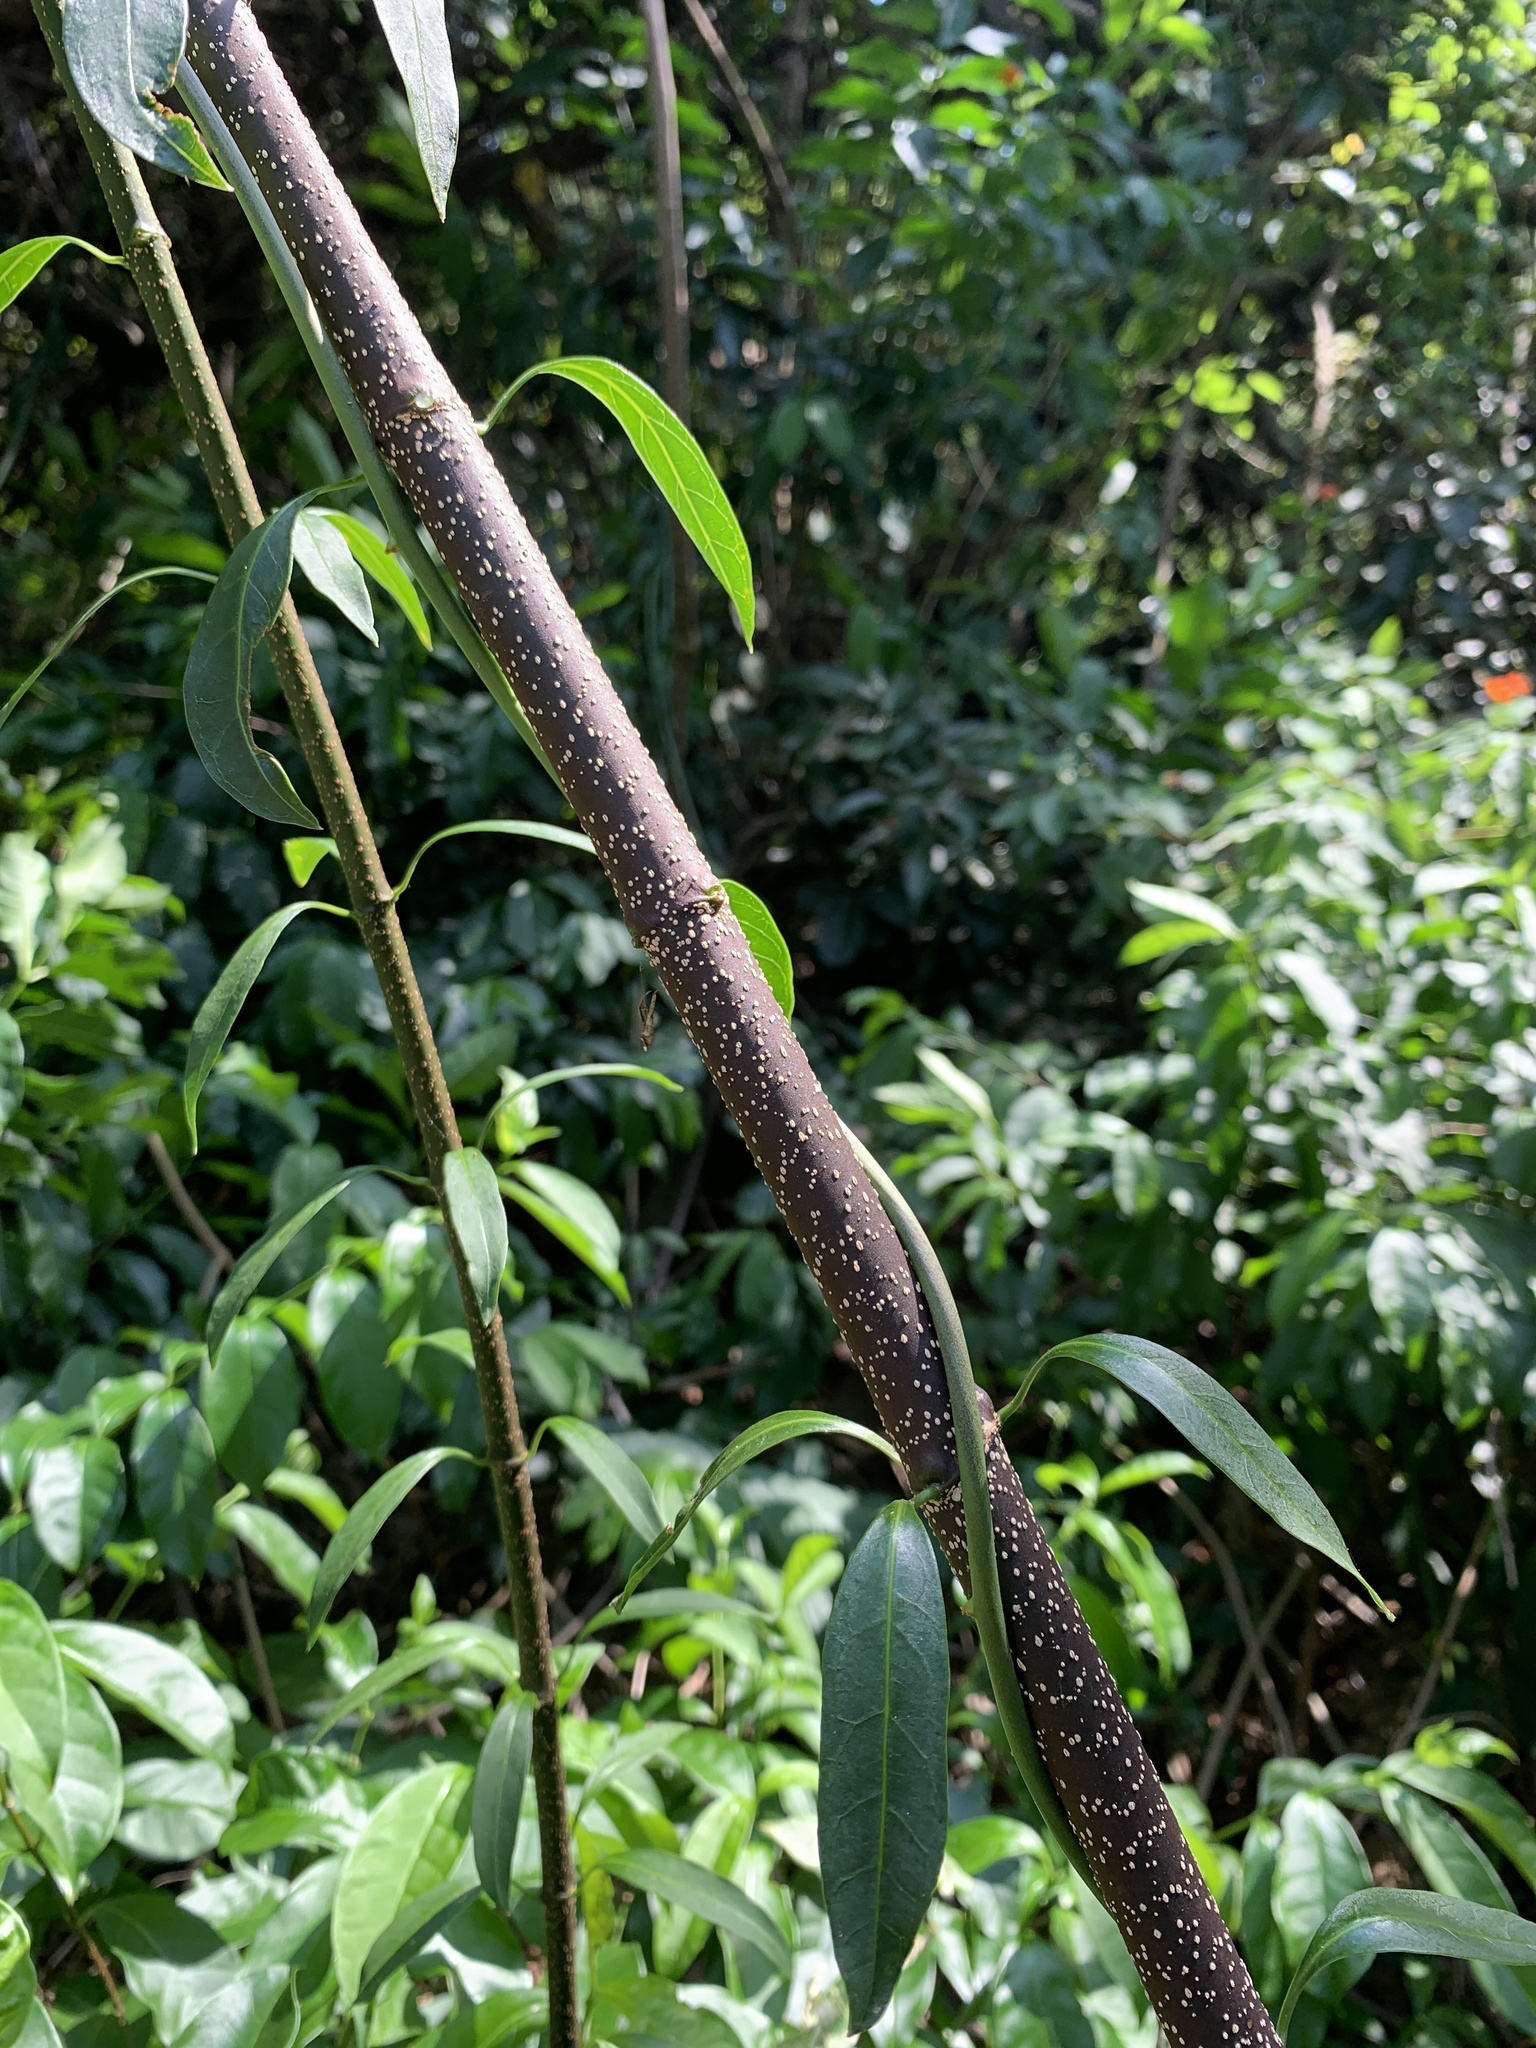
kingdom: Plantae
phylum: Tracheophyta
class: Magnoliopsida
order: Gentianales
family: Apocynaceae
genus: Strophanthus
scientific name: Strophanthus divaricatus
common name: Goat-horns
